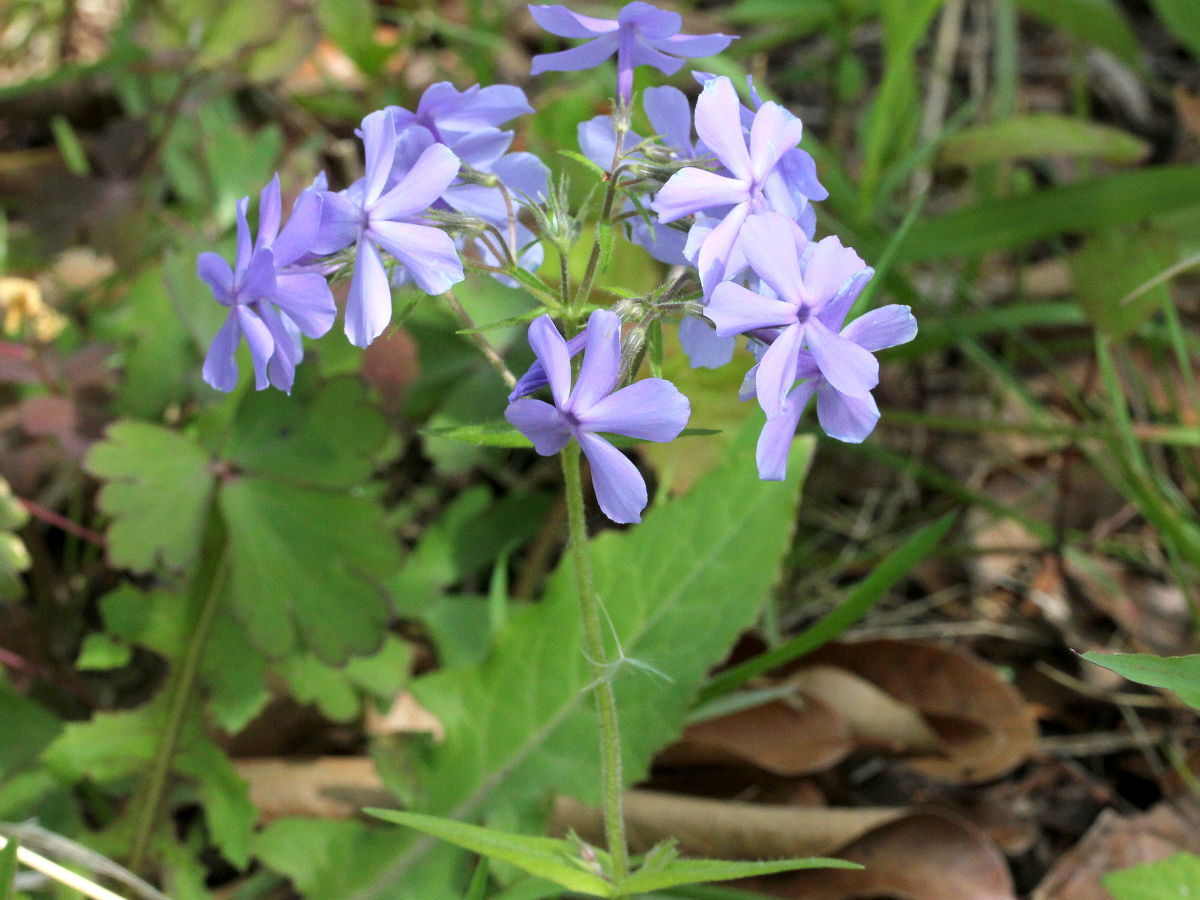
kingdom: Plantae
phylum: Tracheophyta
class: Magnoliopsida
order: Ericales
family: Polemoniaceae
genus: Phlox
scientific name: Phlox divaricata
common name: Blue phlox
